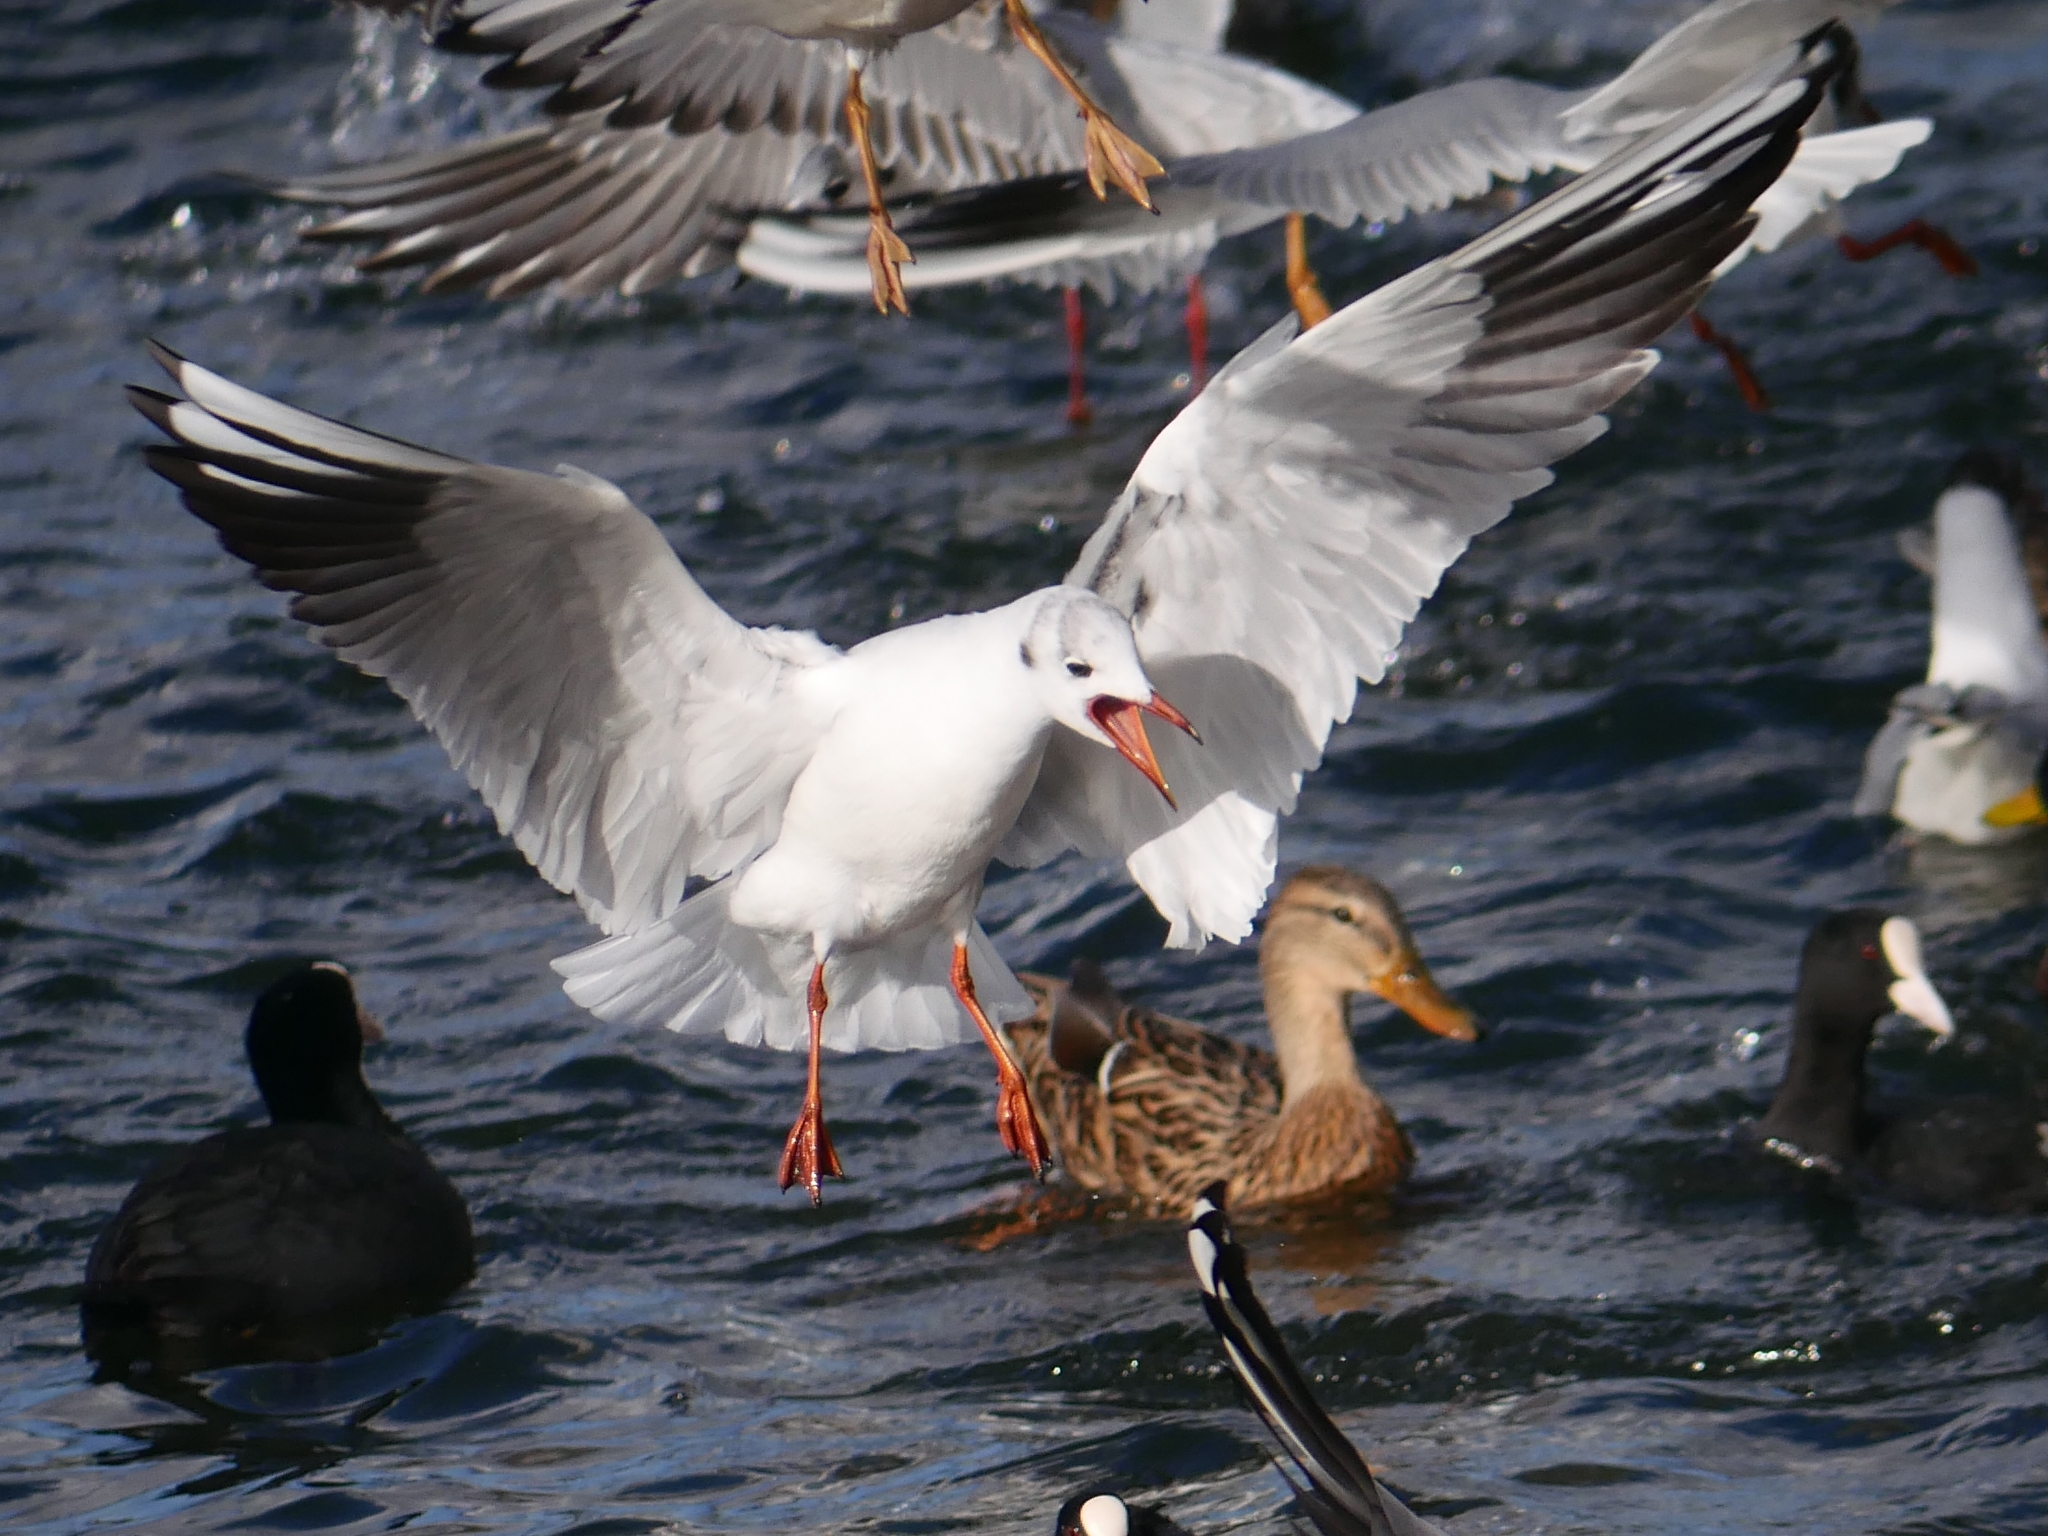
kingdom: Animalia
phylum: Chordata
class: Aves
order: Charadriiformes
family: Laridae
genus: Chroicocephalus
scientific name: Chroicocephalus ridibundus
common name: Black-headed gull
